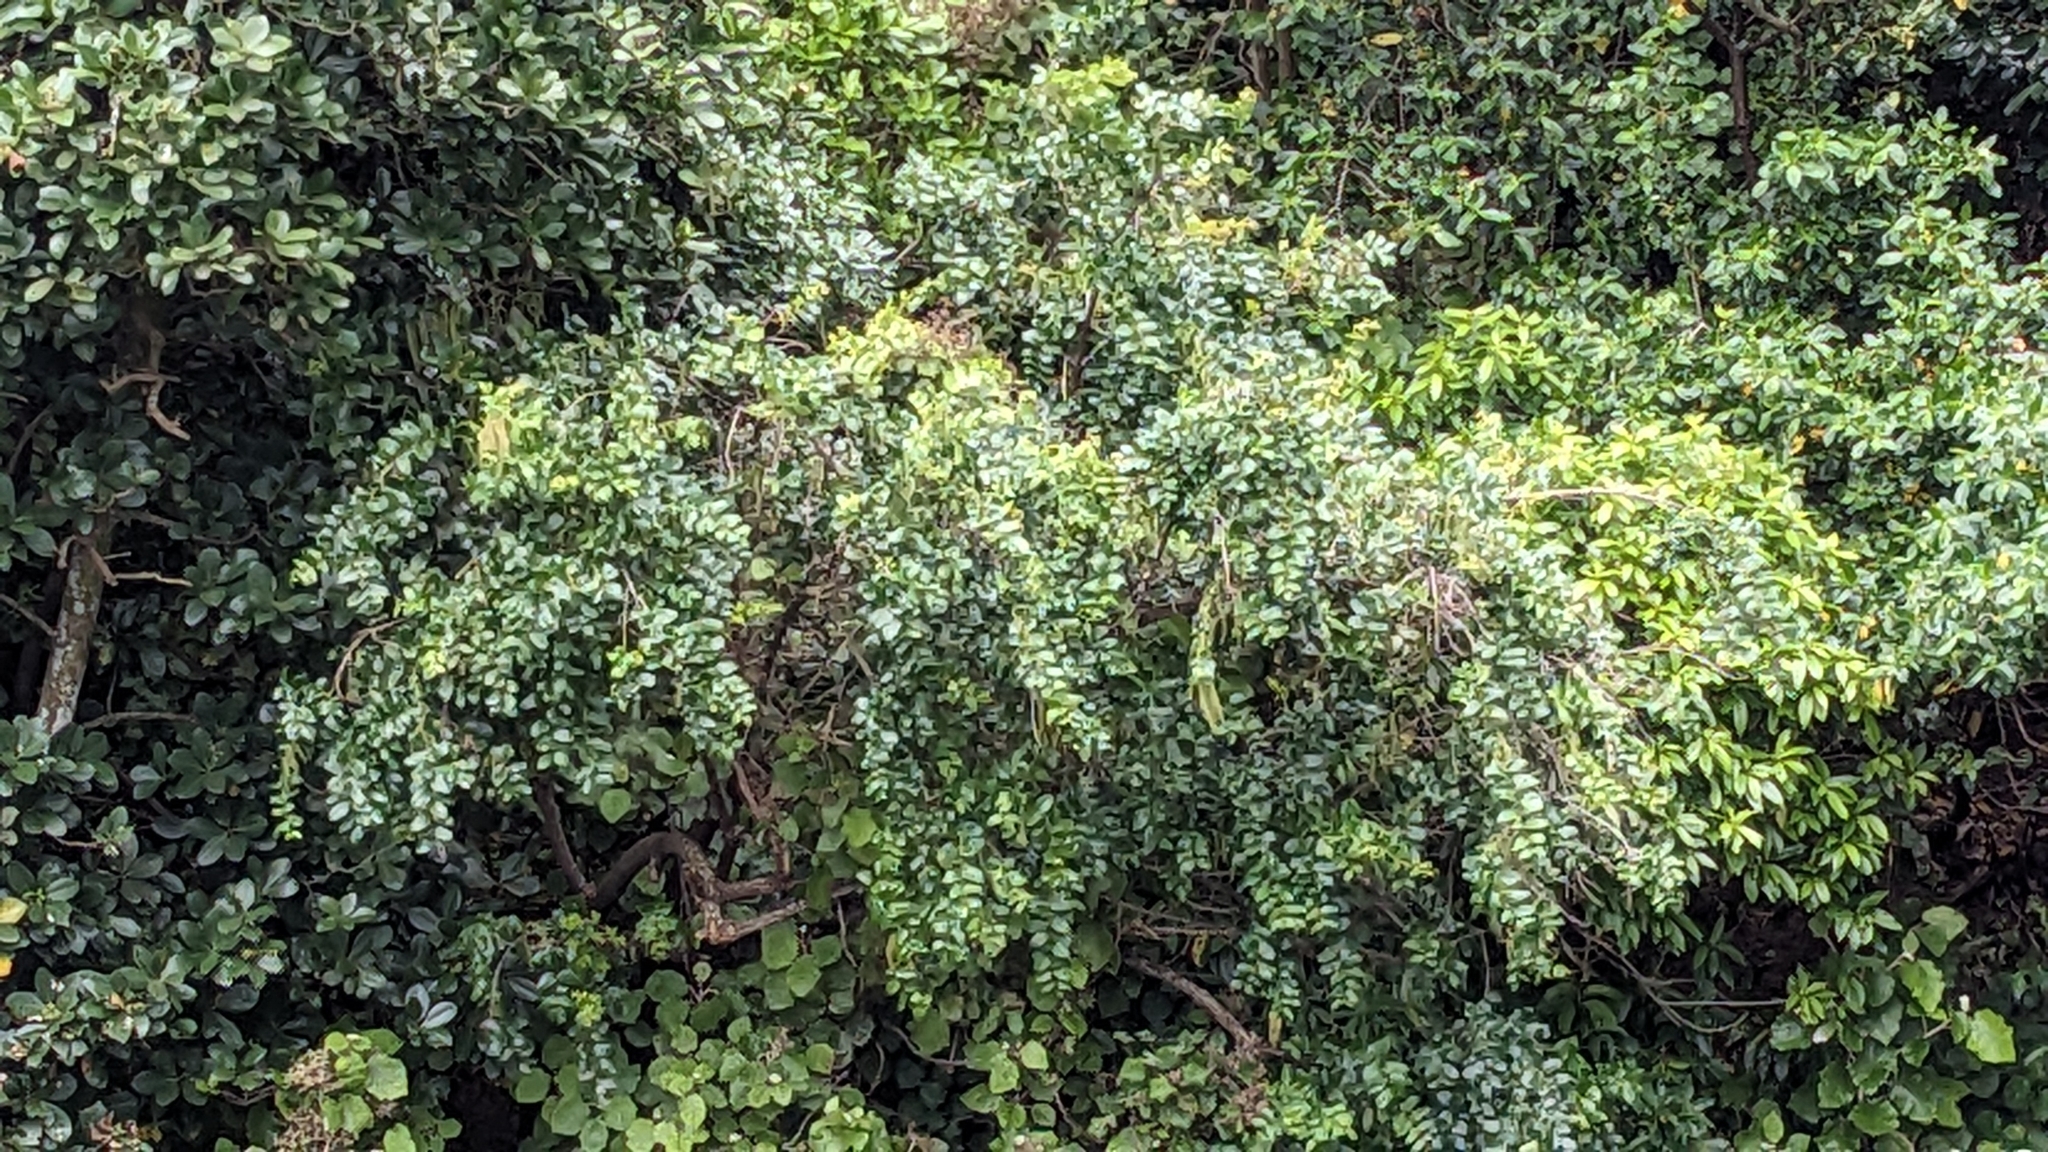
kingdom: Plantae
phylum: Tracheophyta
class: Magnoliopsida
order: Cucurbitales
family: Coriariaceae
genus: Coriaria
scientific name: Coriaria arborea
